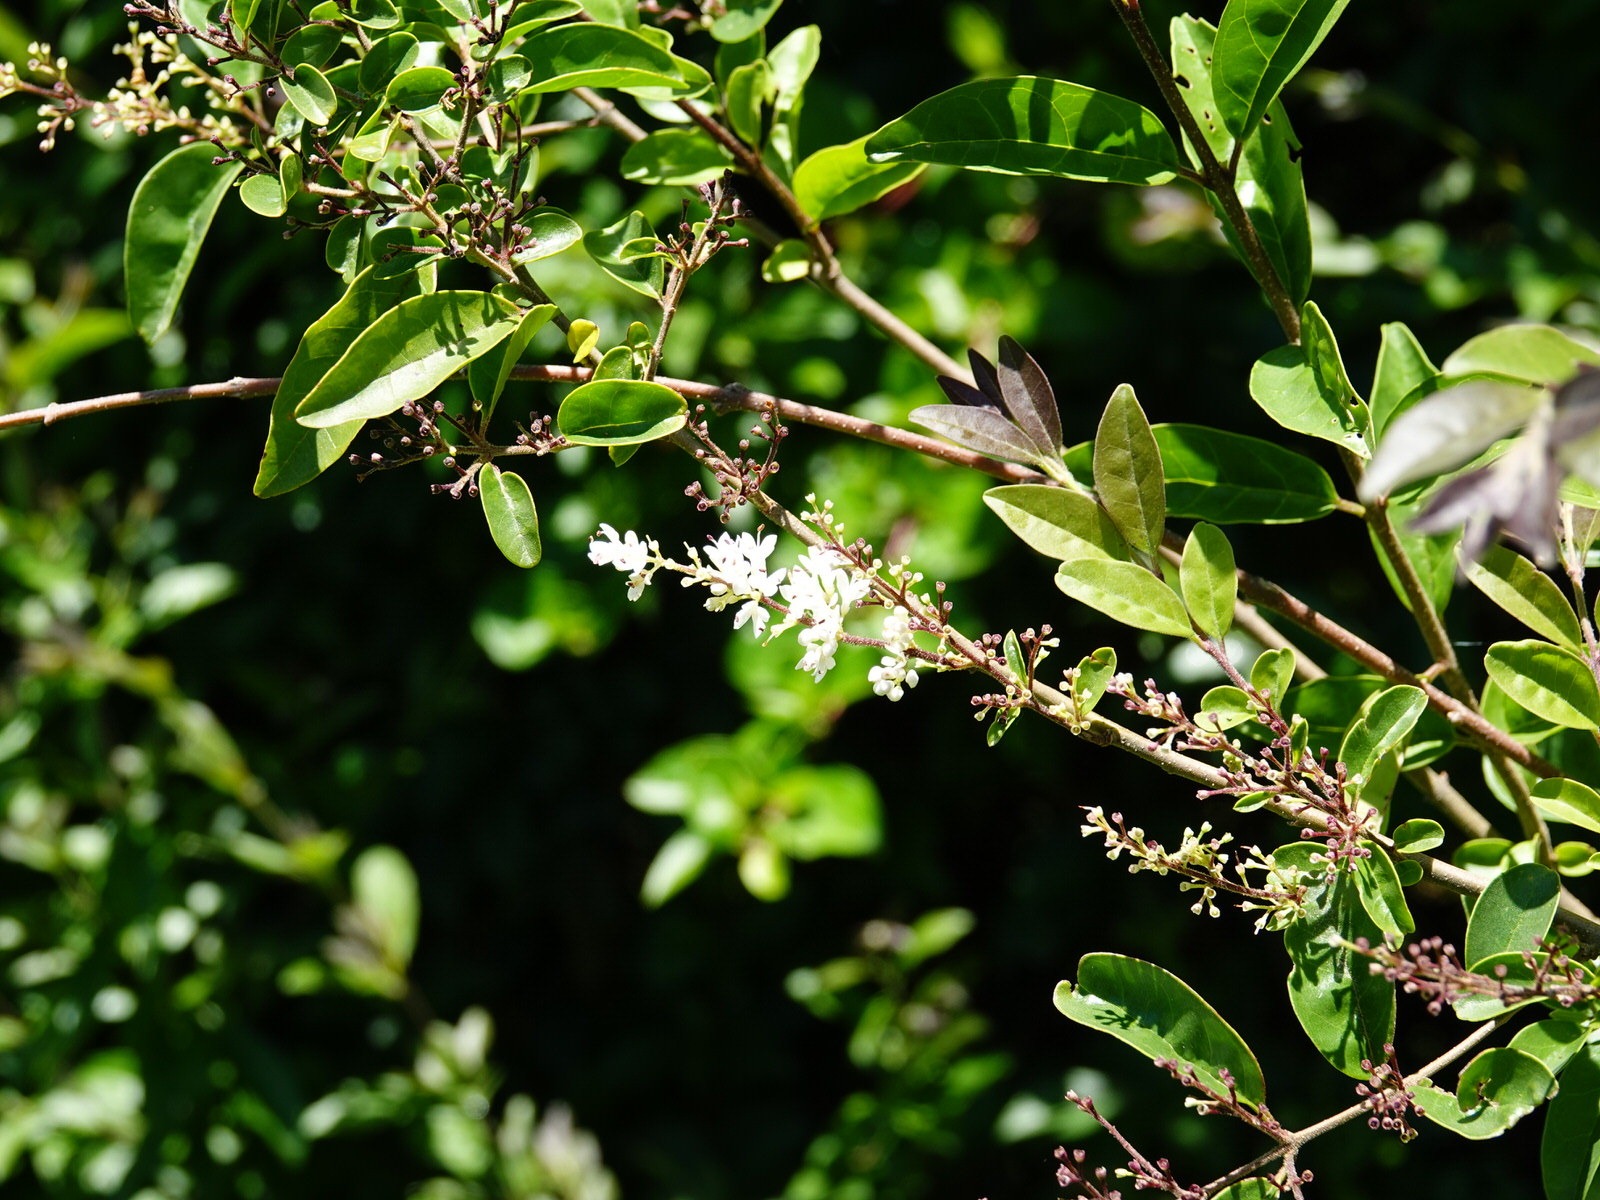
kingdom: Plantae
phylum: Tracheophyta
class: Magnoliopsida
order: Lamiales
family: Oleaceae
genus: Ligustrum
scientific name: Ligustrum sinense
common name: Chinese privet
